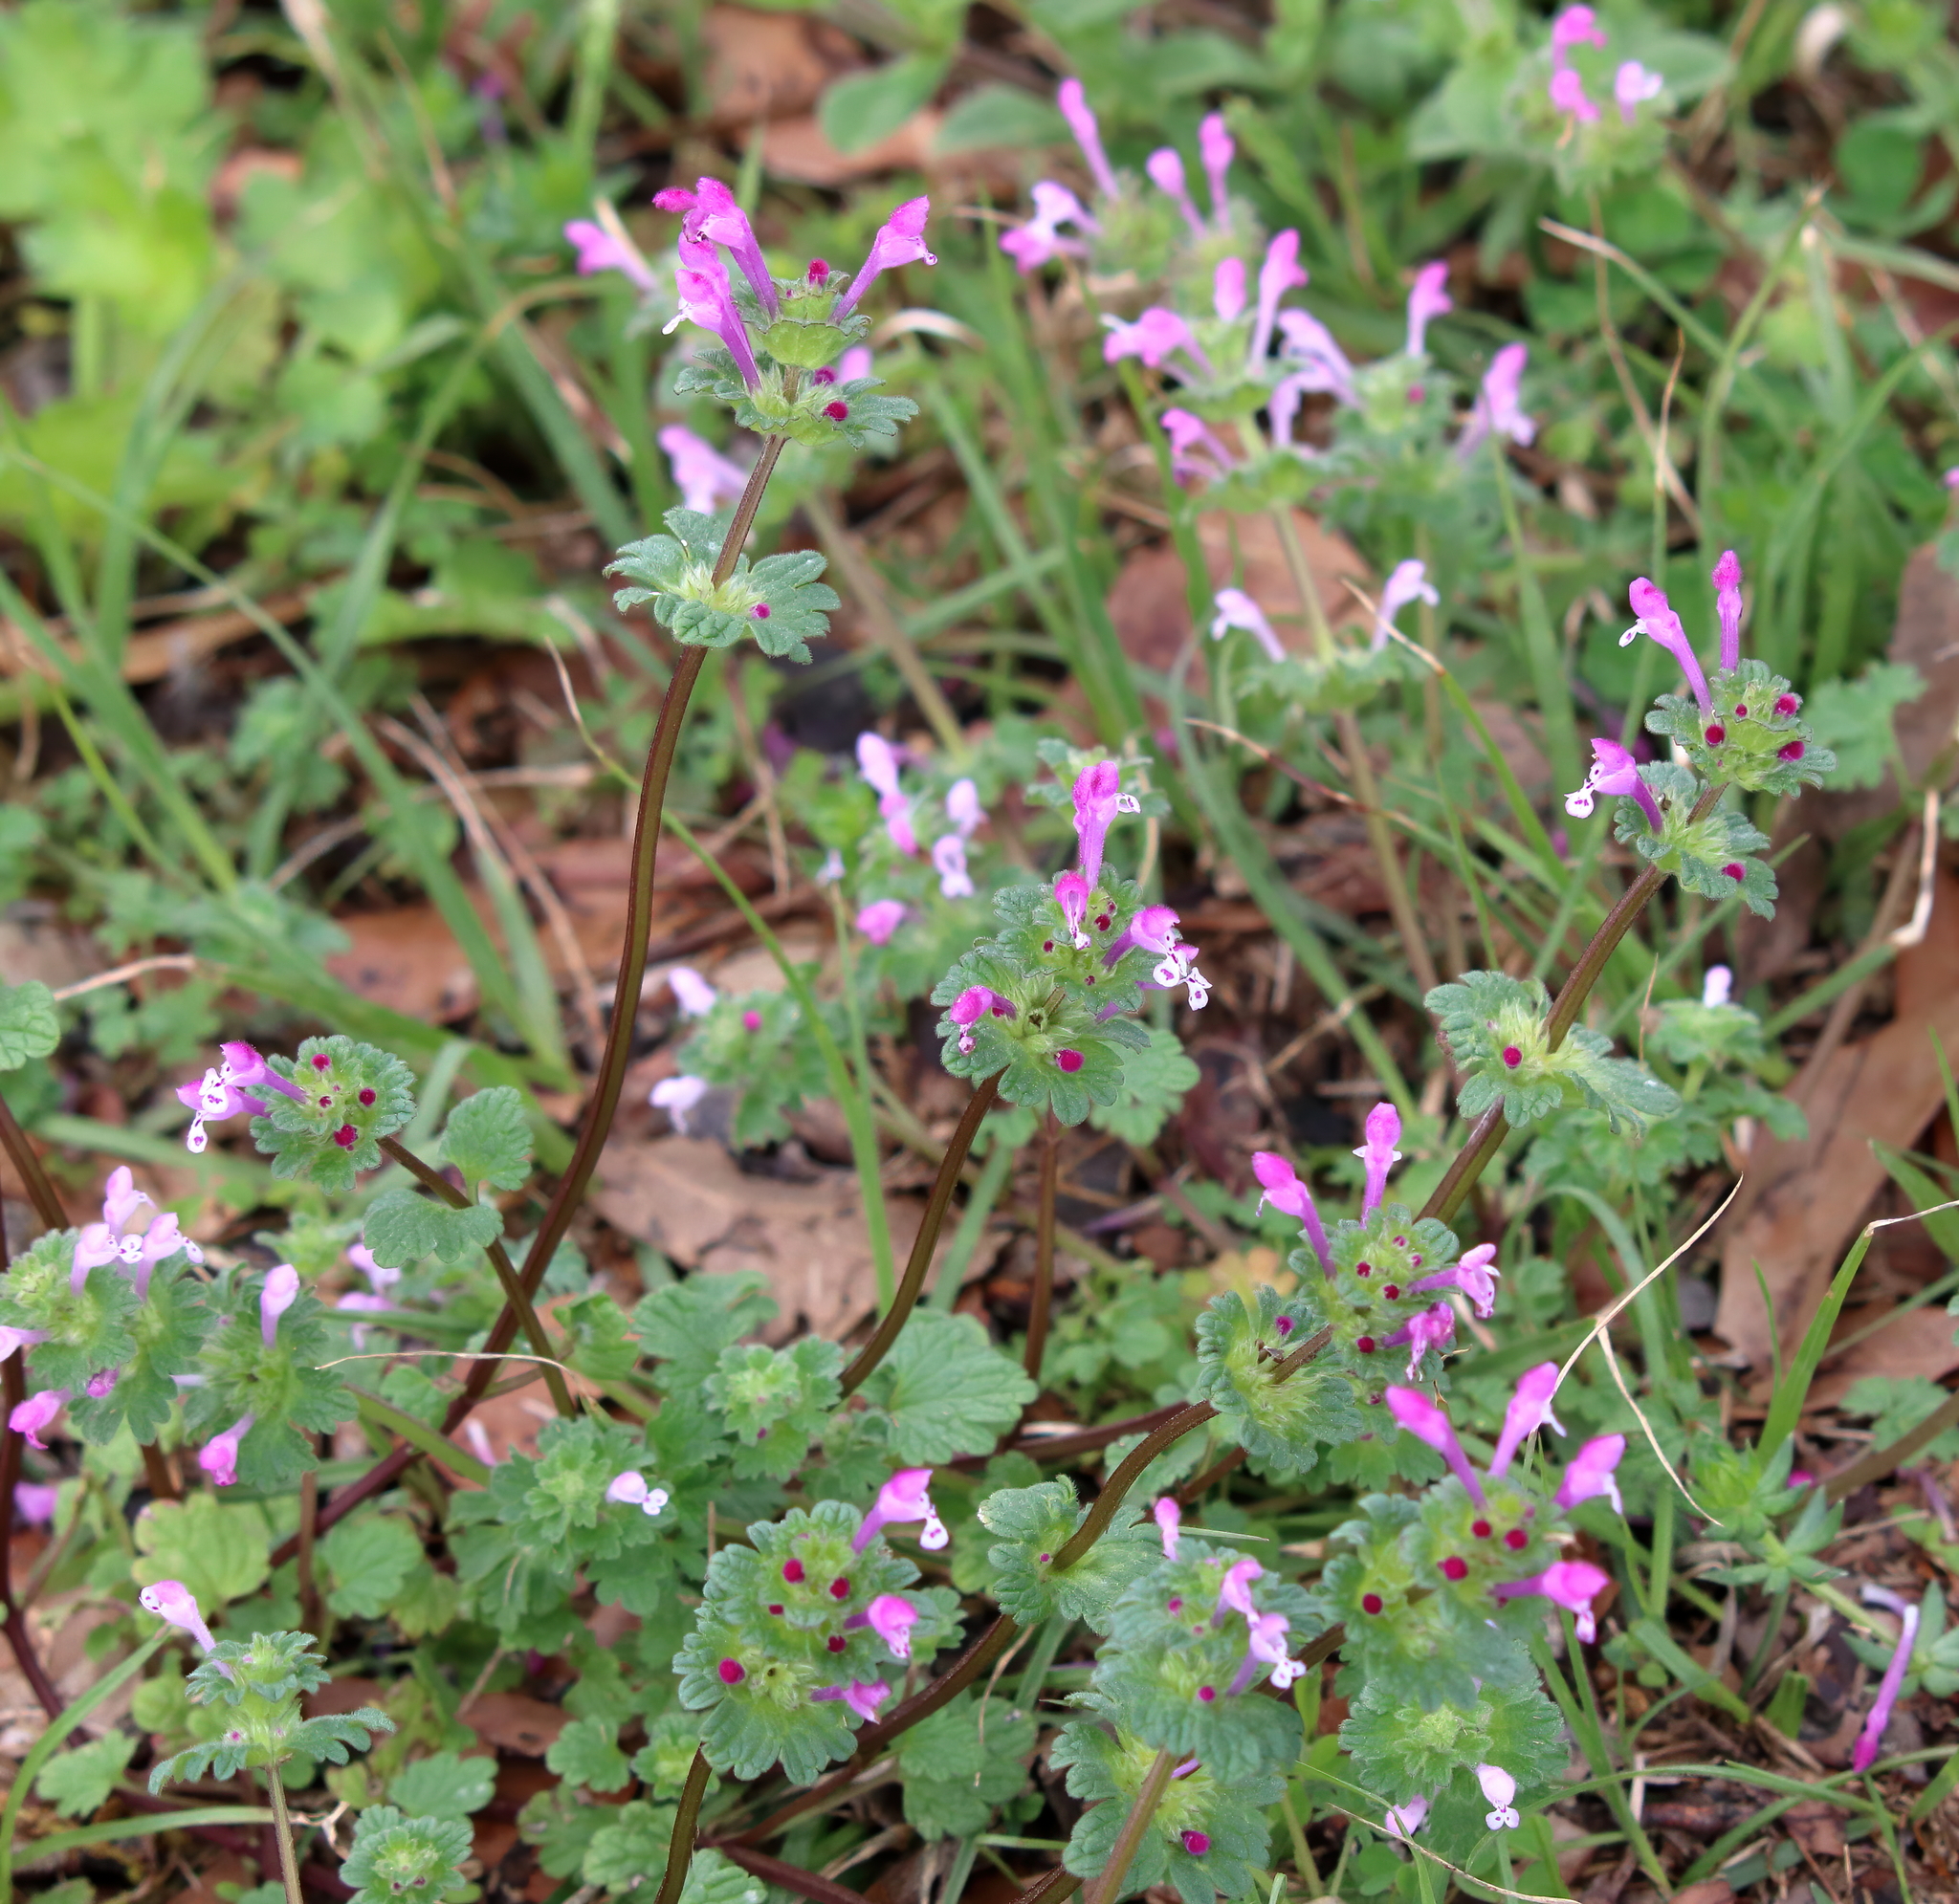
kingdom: Plantae
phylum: Tracheophyta
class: Magnoliopsida
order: Lamiales
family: Lamiaceae
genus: Lamium
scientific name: Lamium amplexicaule
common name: Henbit dead-nettle
